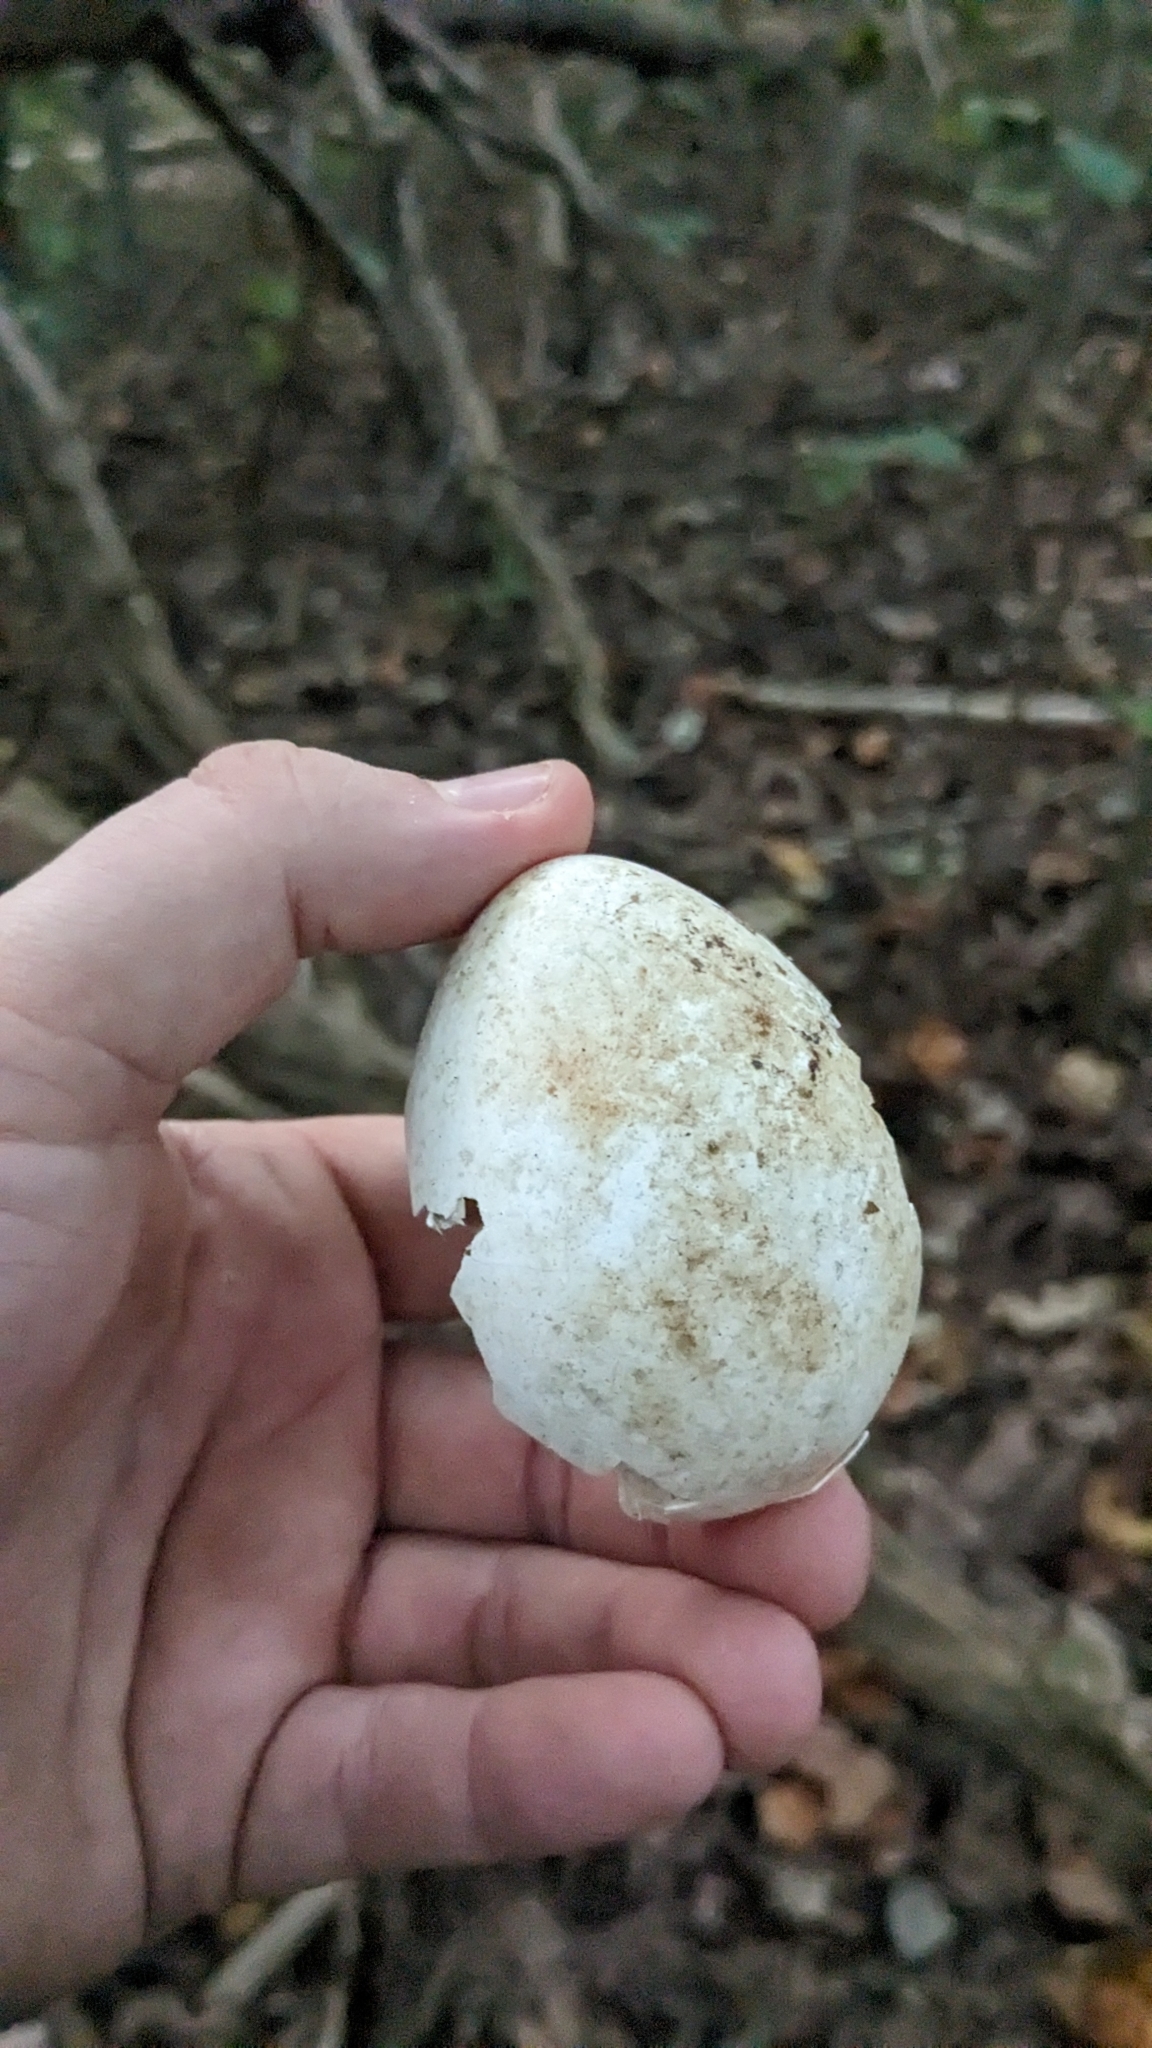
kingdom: Animalia
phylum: Chordata
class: Aves
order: Galliformes
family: Phasianidae
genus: Meleagris
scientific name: Meleagris gallopavo
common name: Wild turkey
